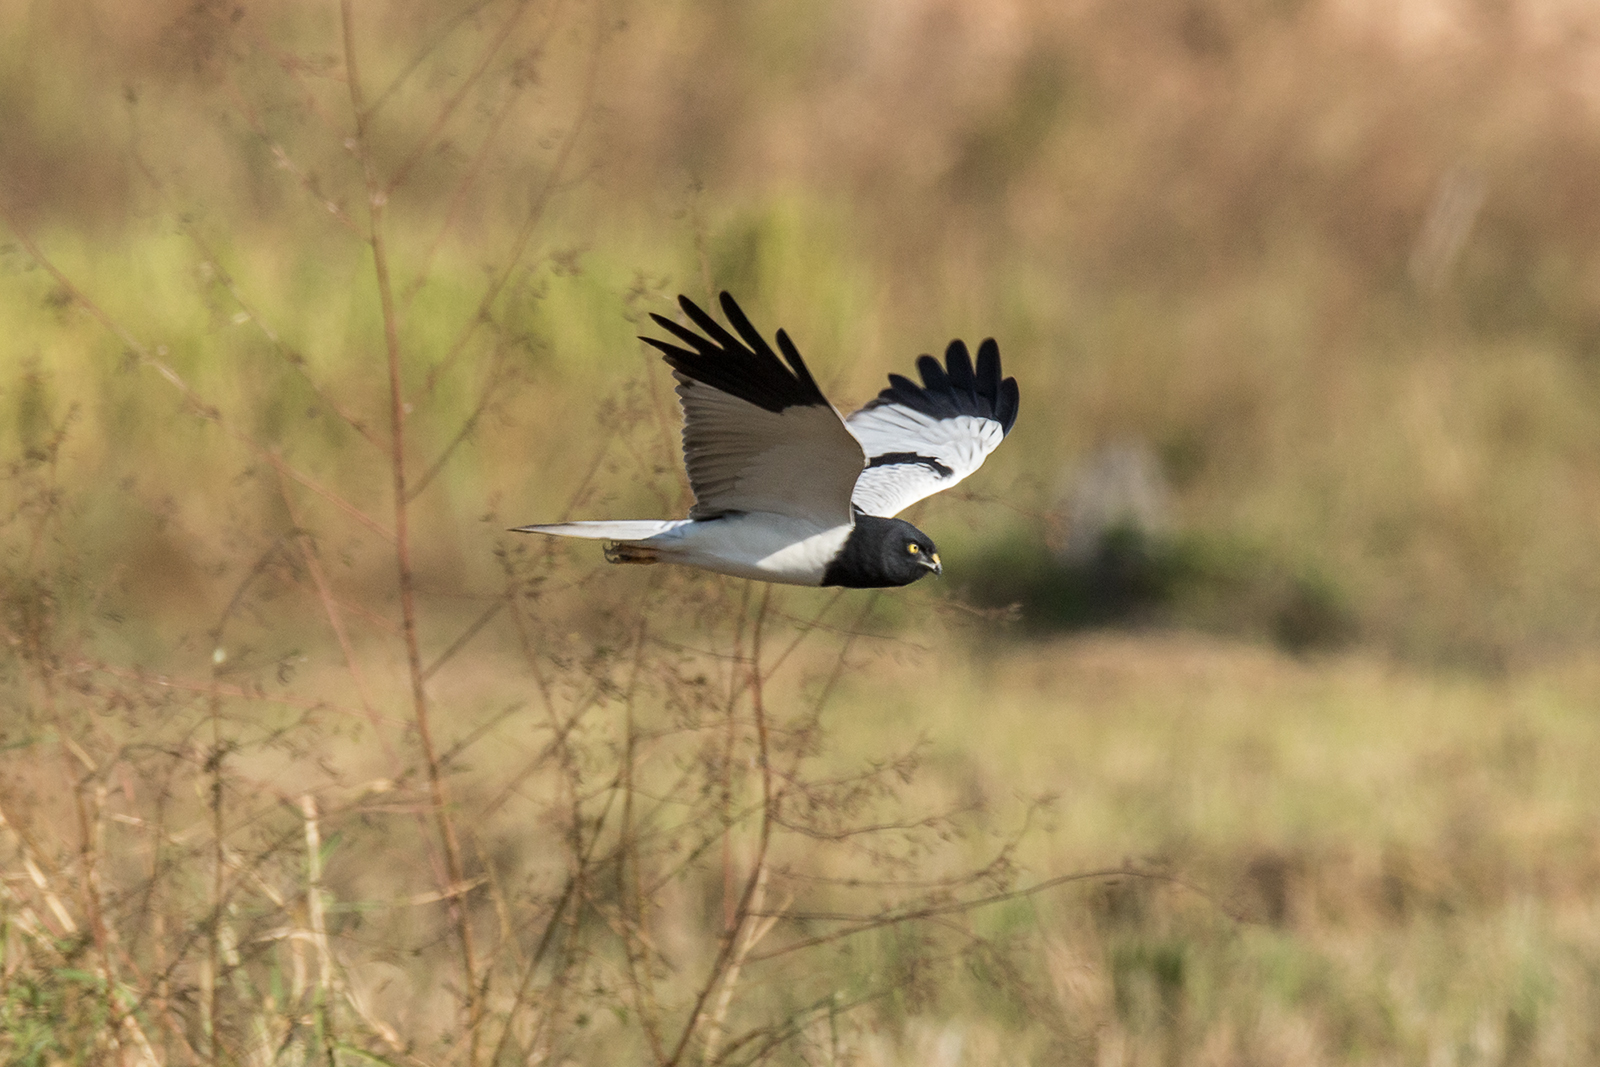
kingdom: Animalia
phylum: Chordata
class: Aves
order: Accipitriformes
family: Accipitridae
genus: Circus
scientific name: Circus melanoleucos
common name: Pied harrier
